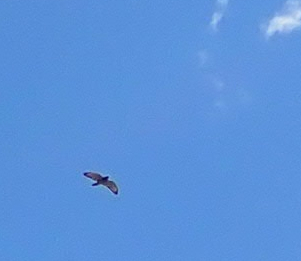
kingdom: Animalia
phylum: Chordata
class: Aves
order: Accipitriformes
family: Accipitridae
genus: Buteo
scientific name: Buteo platypterus
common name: Broad-winged hawk
